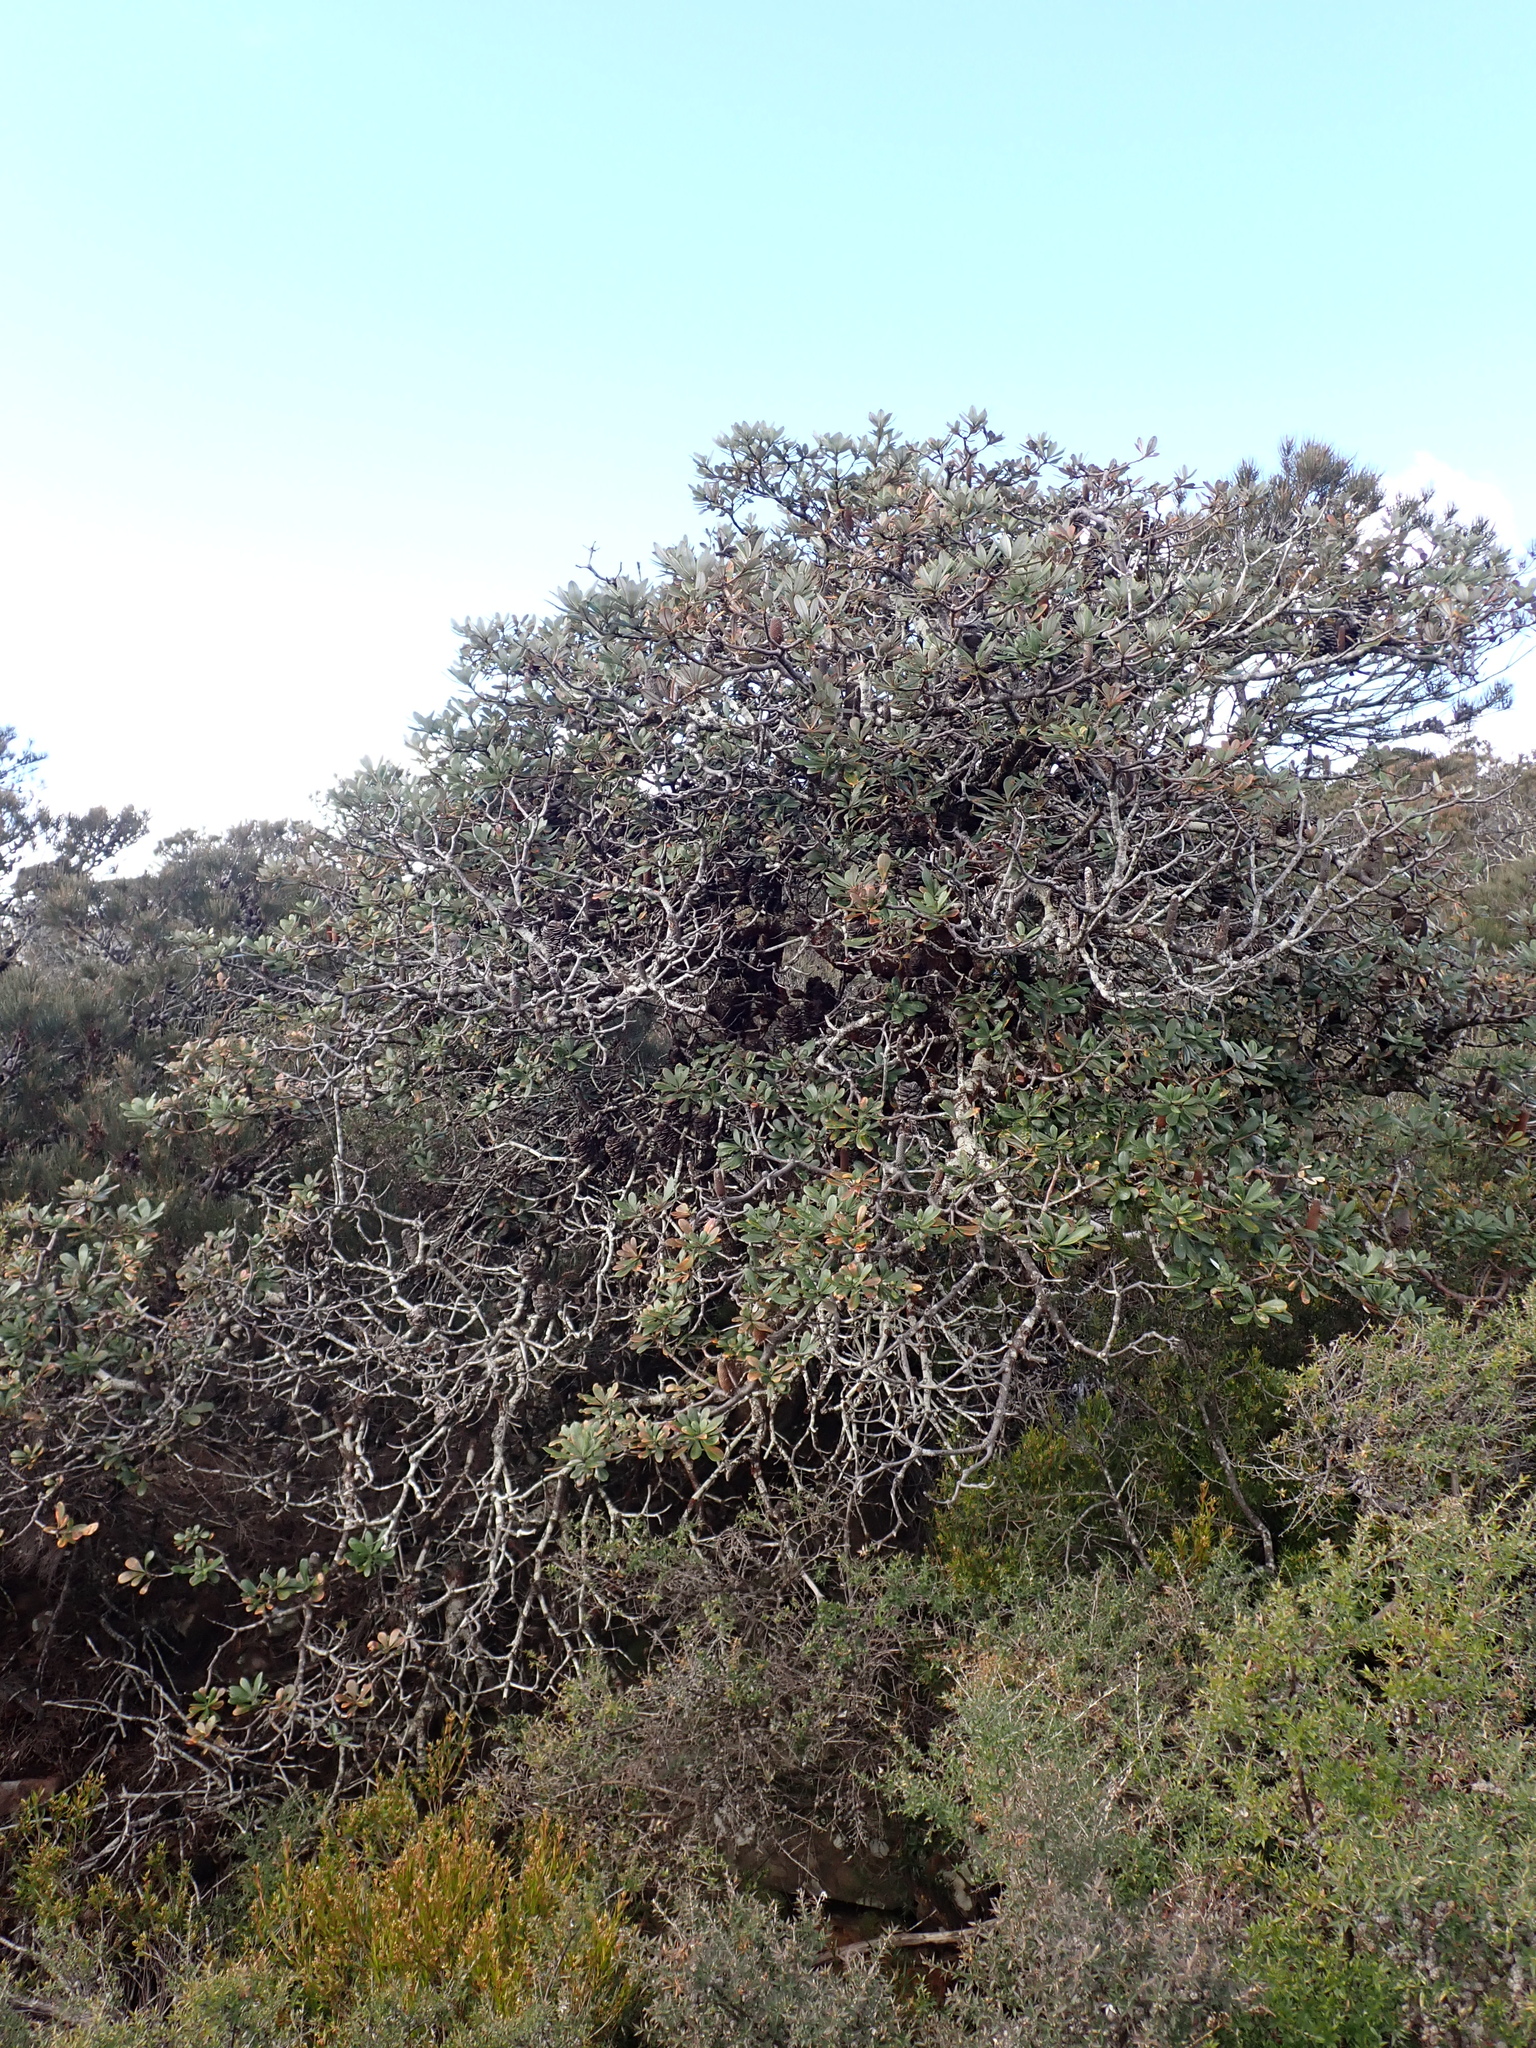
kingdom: Plantae
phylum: Tracheophyta
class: Magnoliopsida
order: Proteales
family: Proteaceae
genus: Banksia
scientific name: Banksia saxicola
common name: Grampians banksia
